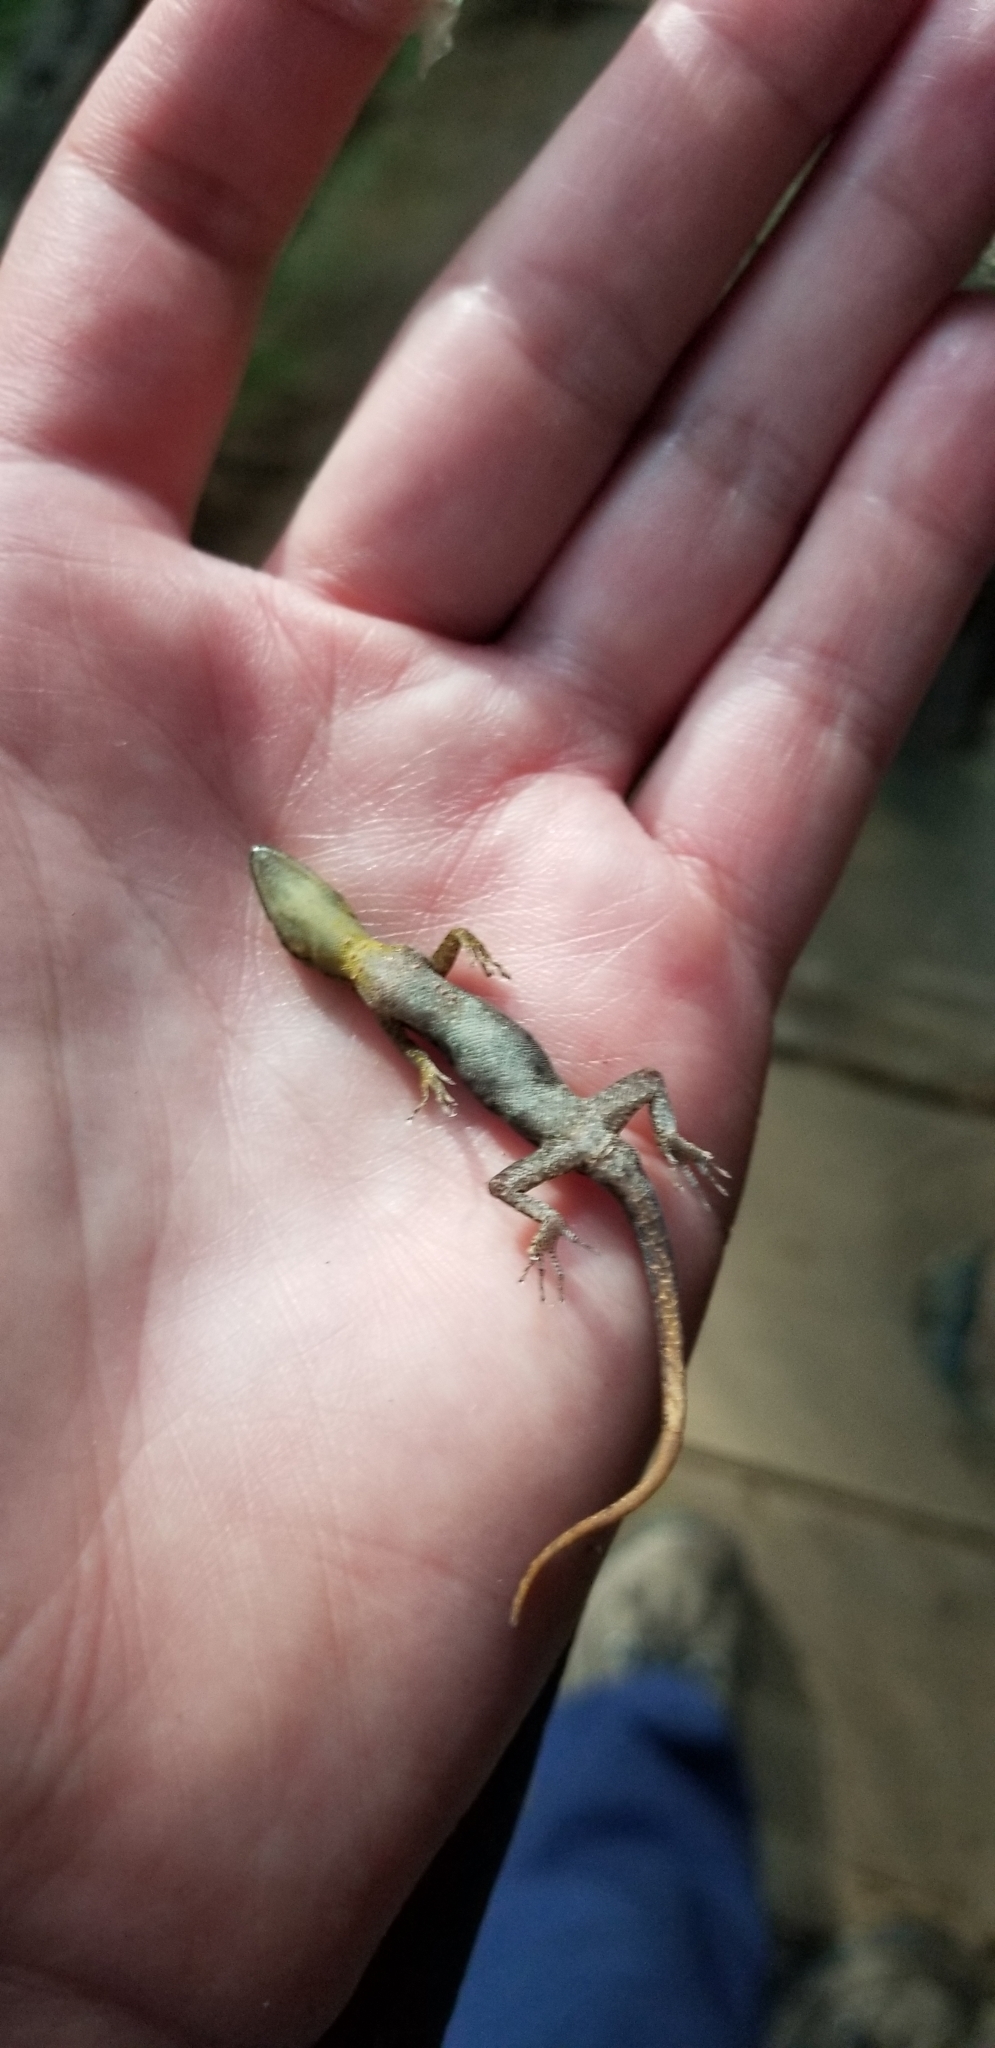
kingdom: Animalia
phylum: Chordata
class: Squamata
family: Sphaerodactylidae
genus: Gonatodes
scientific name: Gonatodes humeralis
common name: South american clawed gecko
